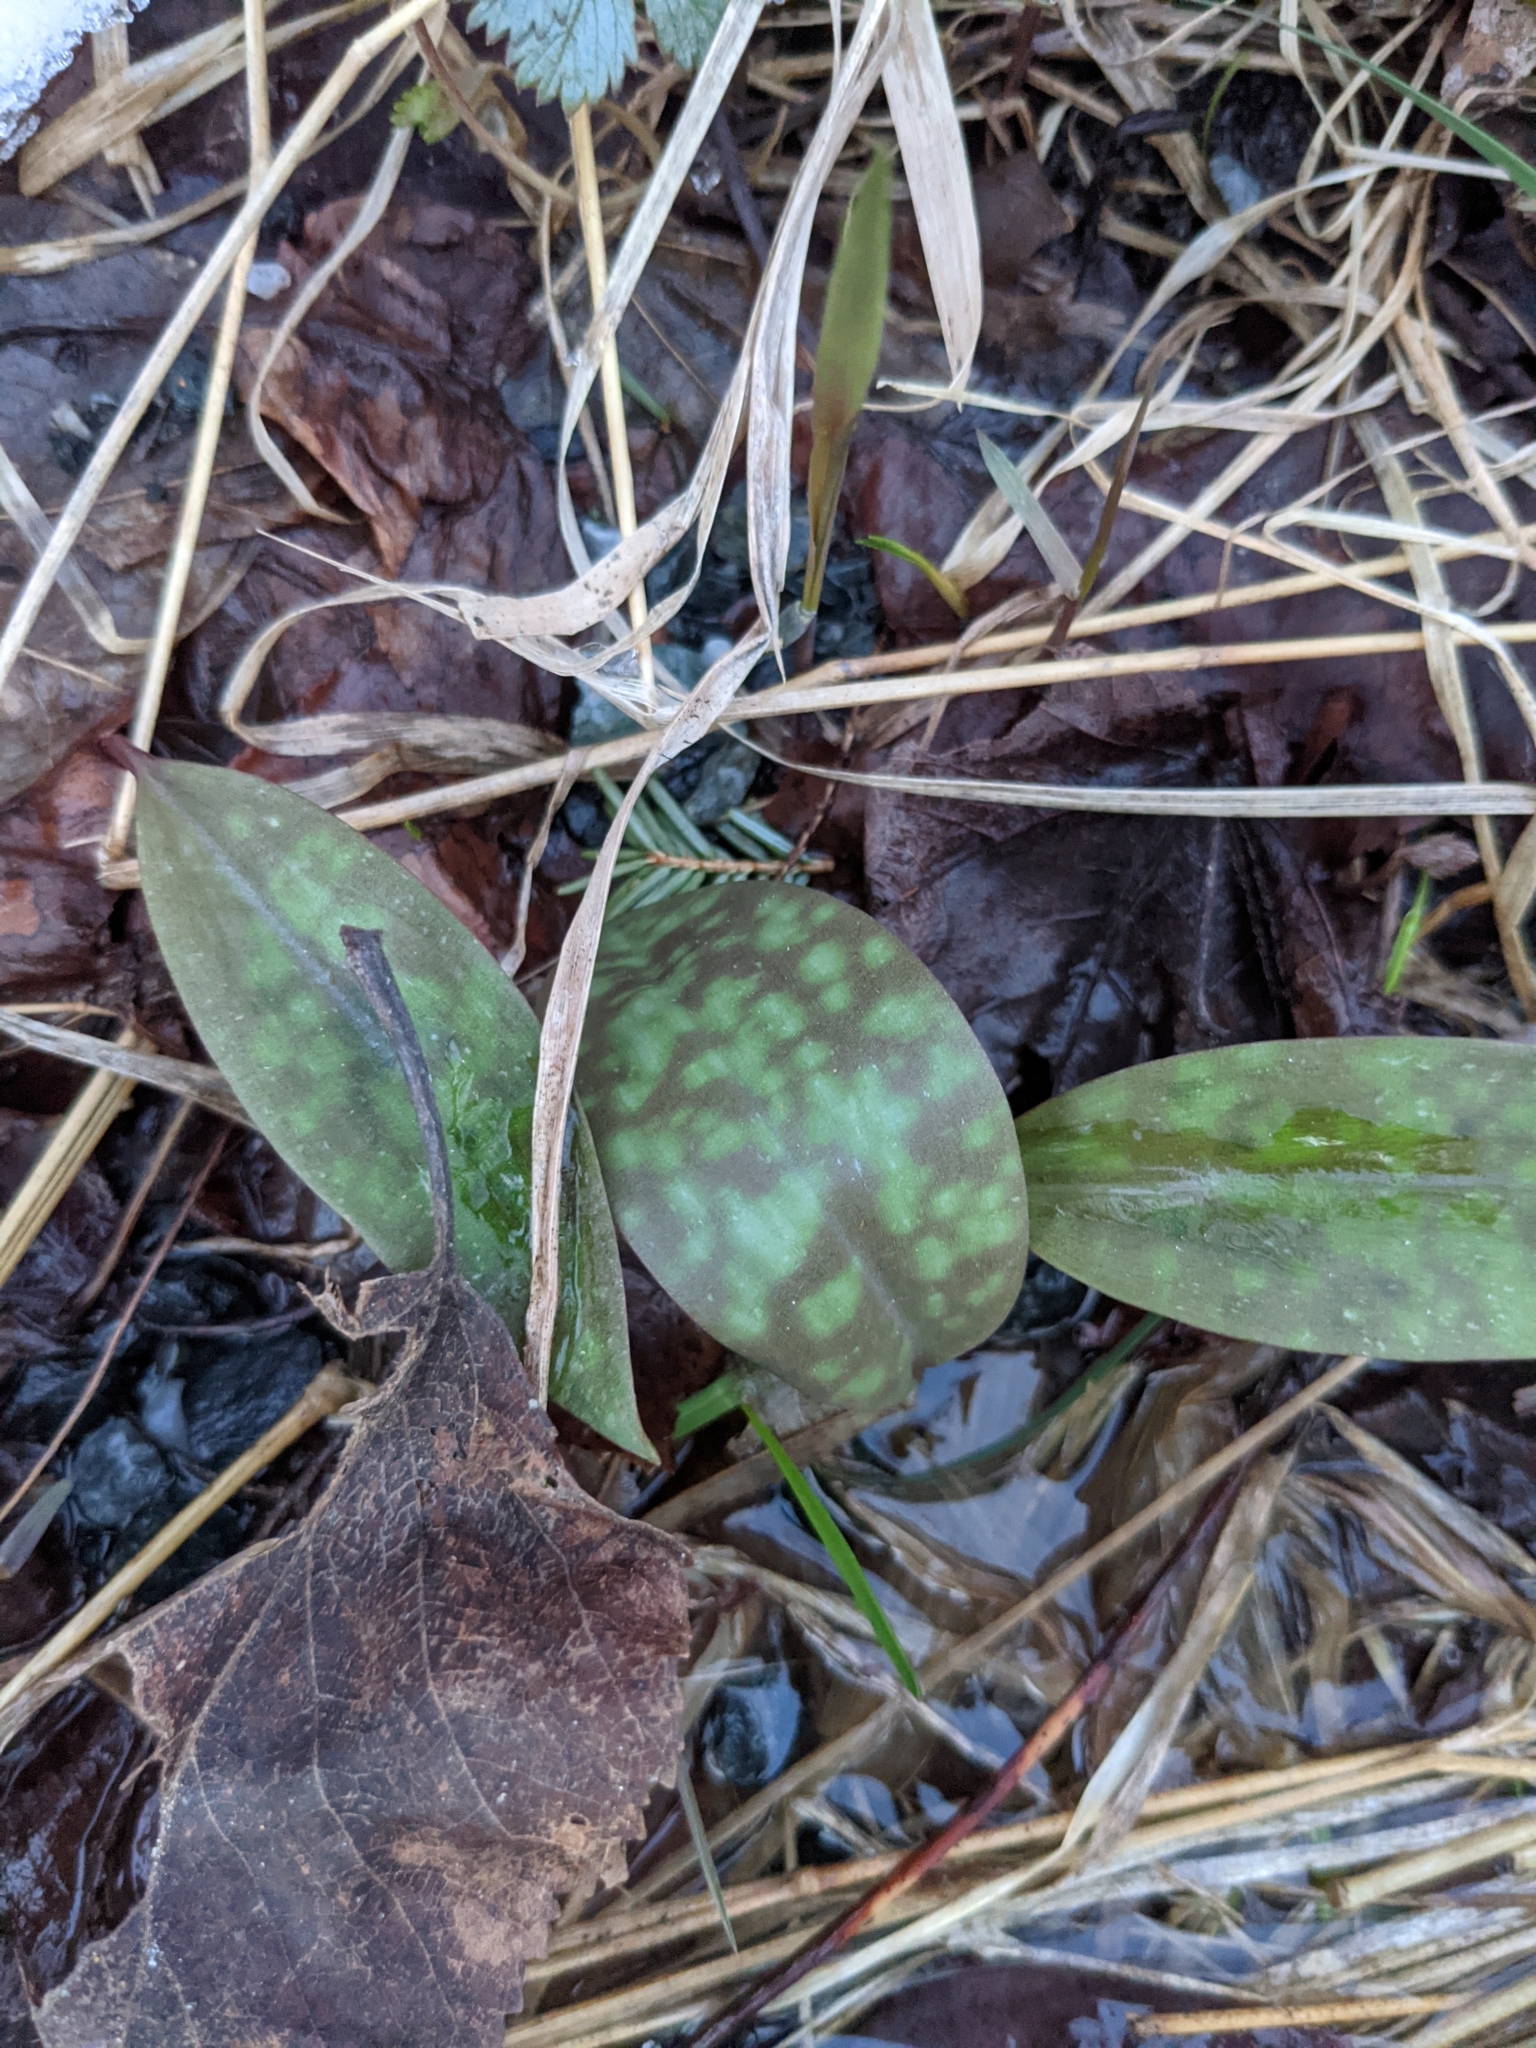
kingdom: Plantae
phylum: Tracheophyta
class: Liliopsida
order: Liliales
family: Liliaceae
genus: Erythronium
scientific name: Erythronium americanum
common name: Yellow adder's-tongue
